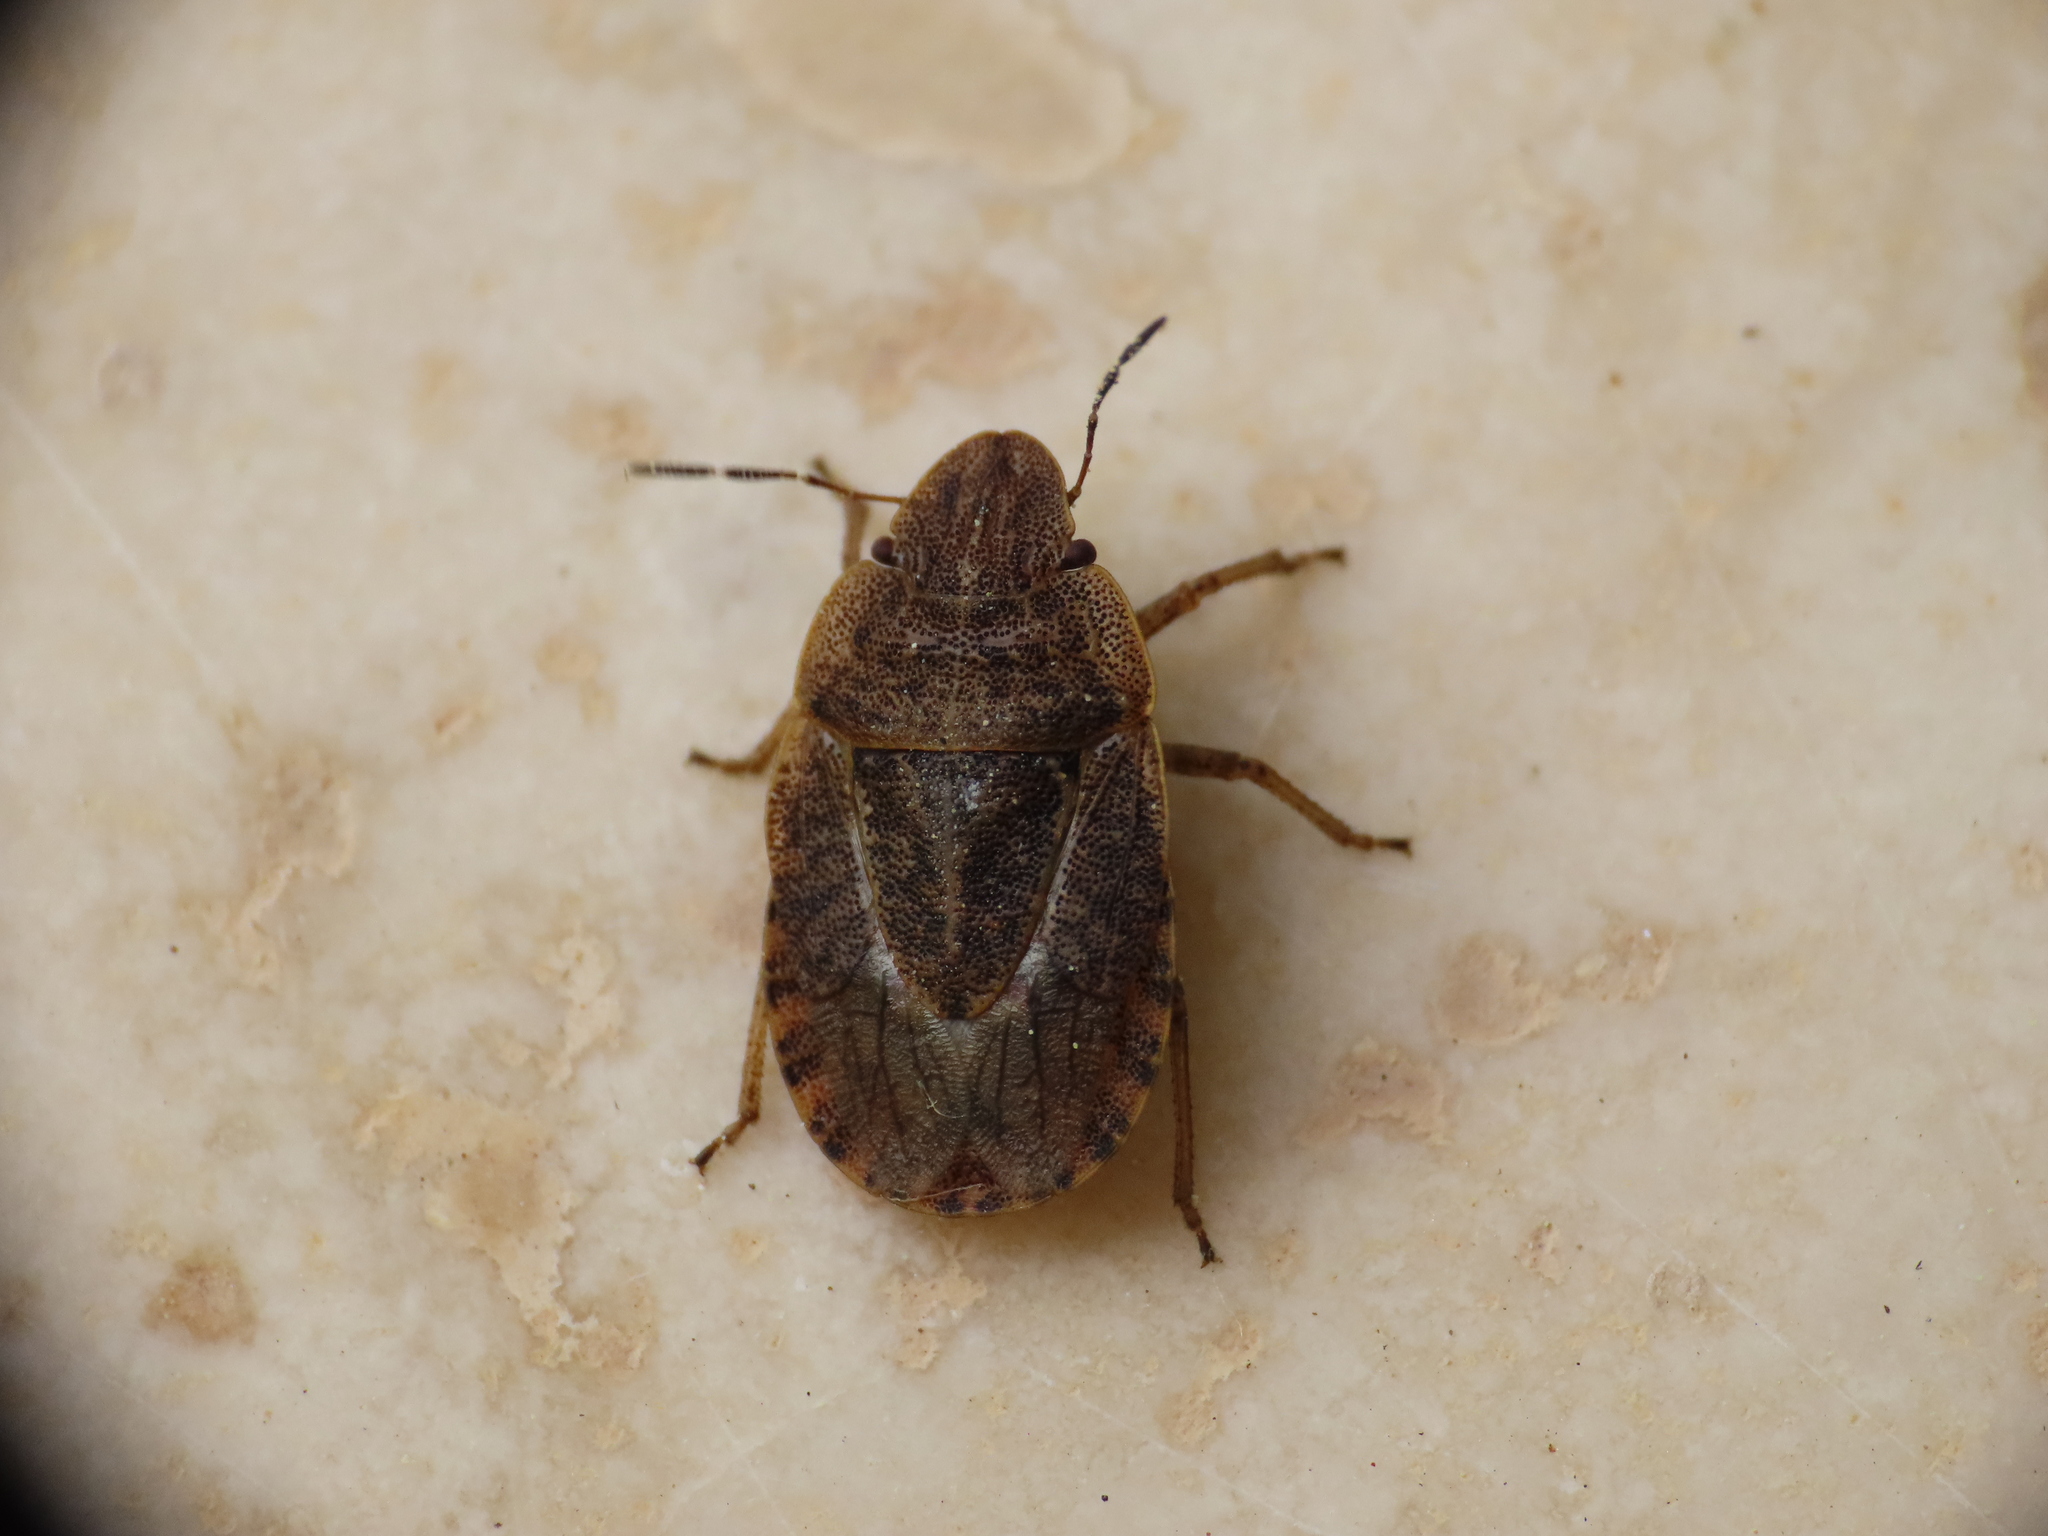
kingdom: Animalia
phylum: Arthropoda
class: Insecta
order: Hemiptera
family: Pentatomidae
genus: Sciocoris
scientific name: Sciocoris cursitans
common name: Sandrunner
